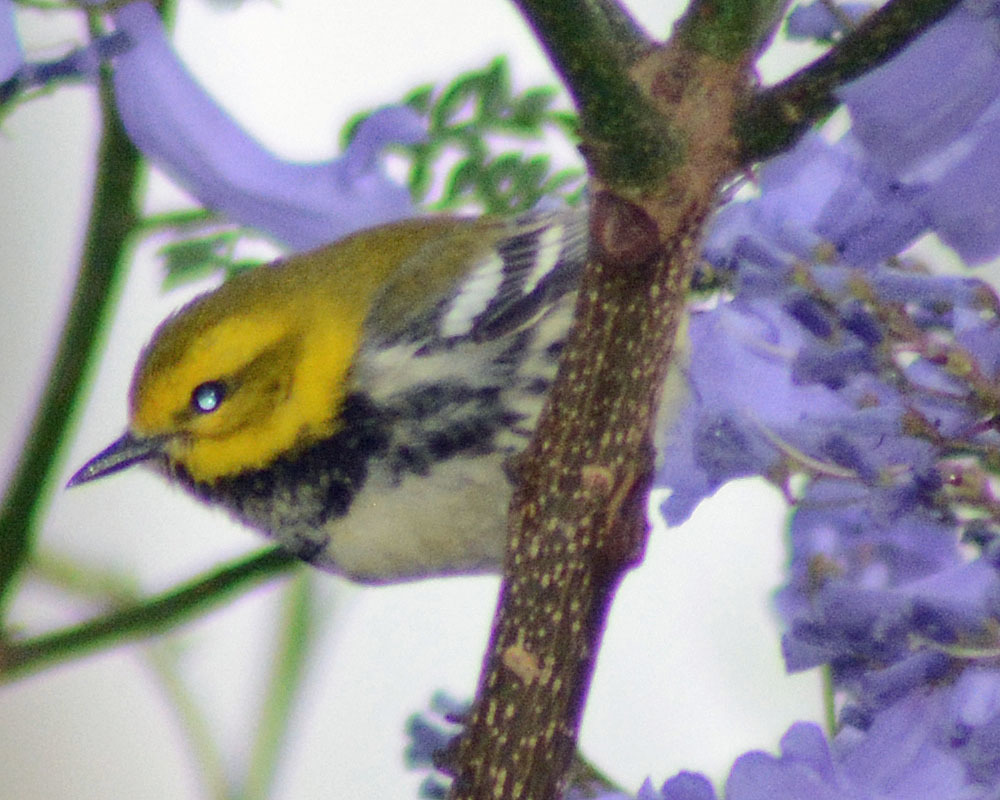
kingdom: Animalia
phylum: Chordata
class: Aves
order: Passeriformes
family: Parulidae
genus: Setophaga
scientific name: Setophaga virens
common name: Black-throated green warbler
